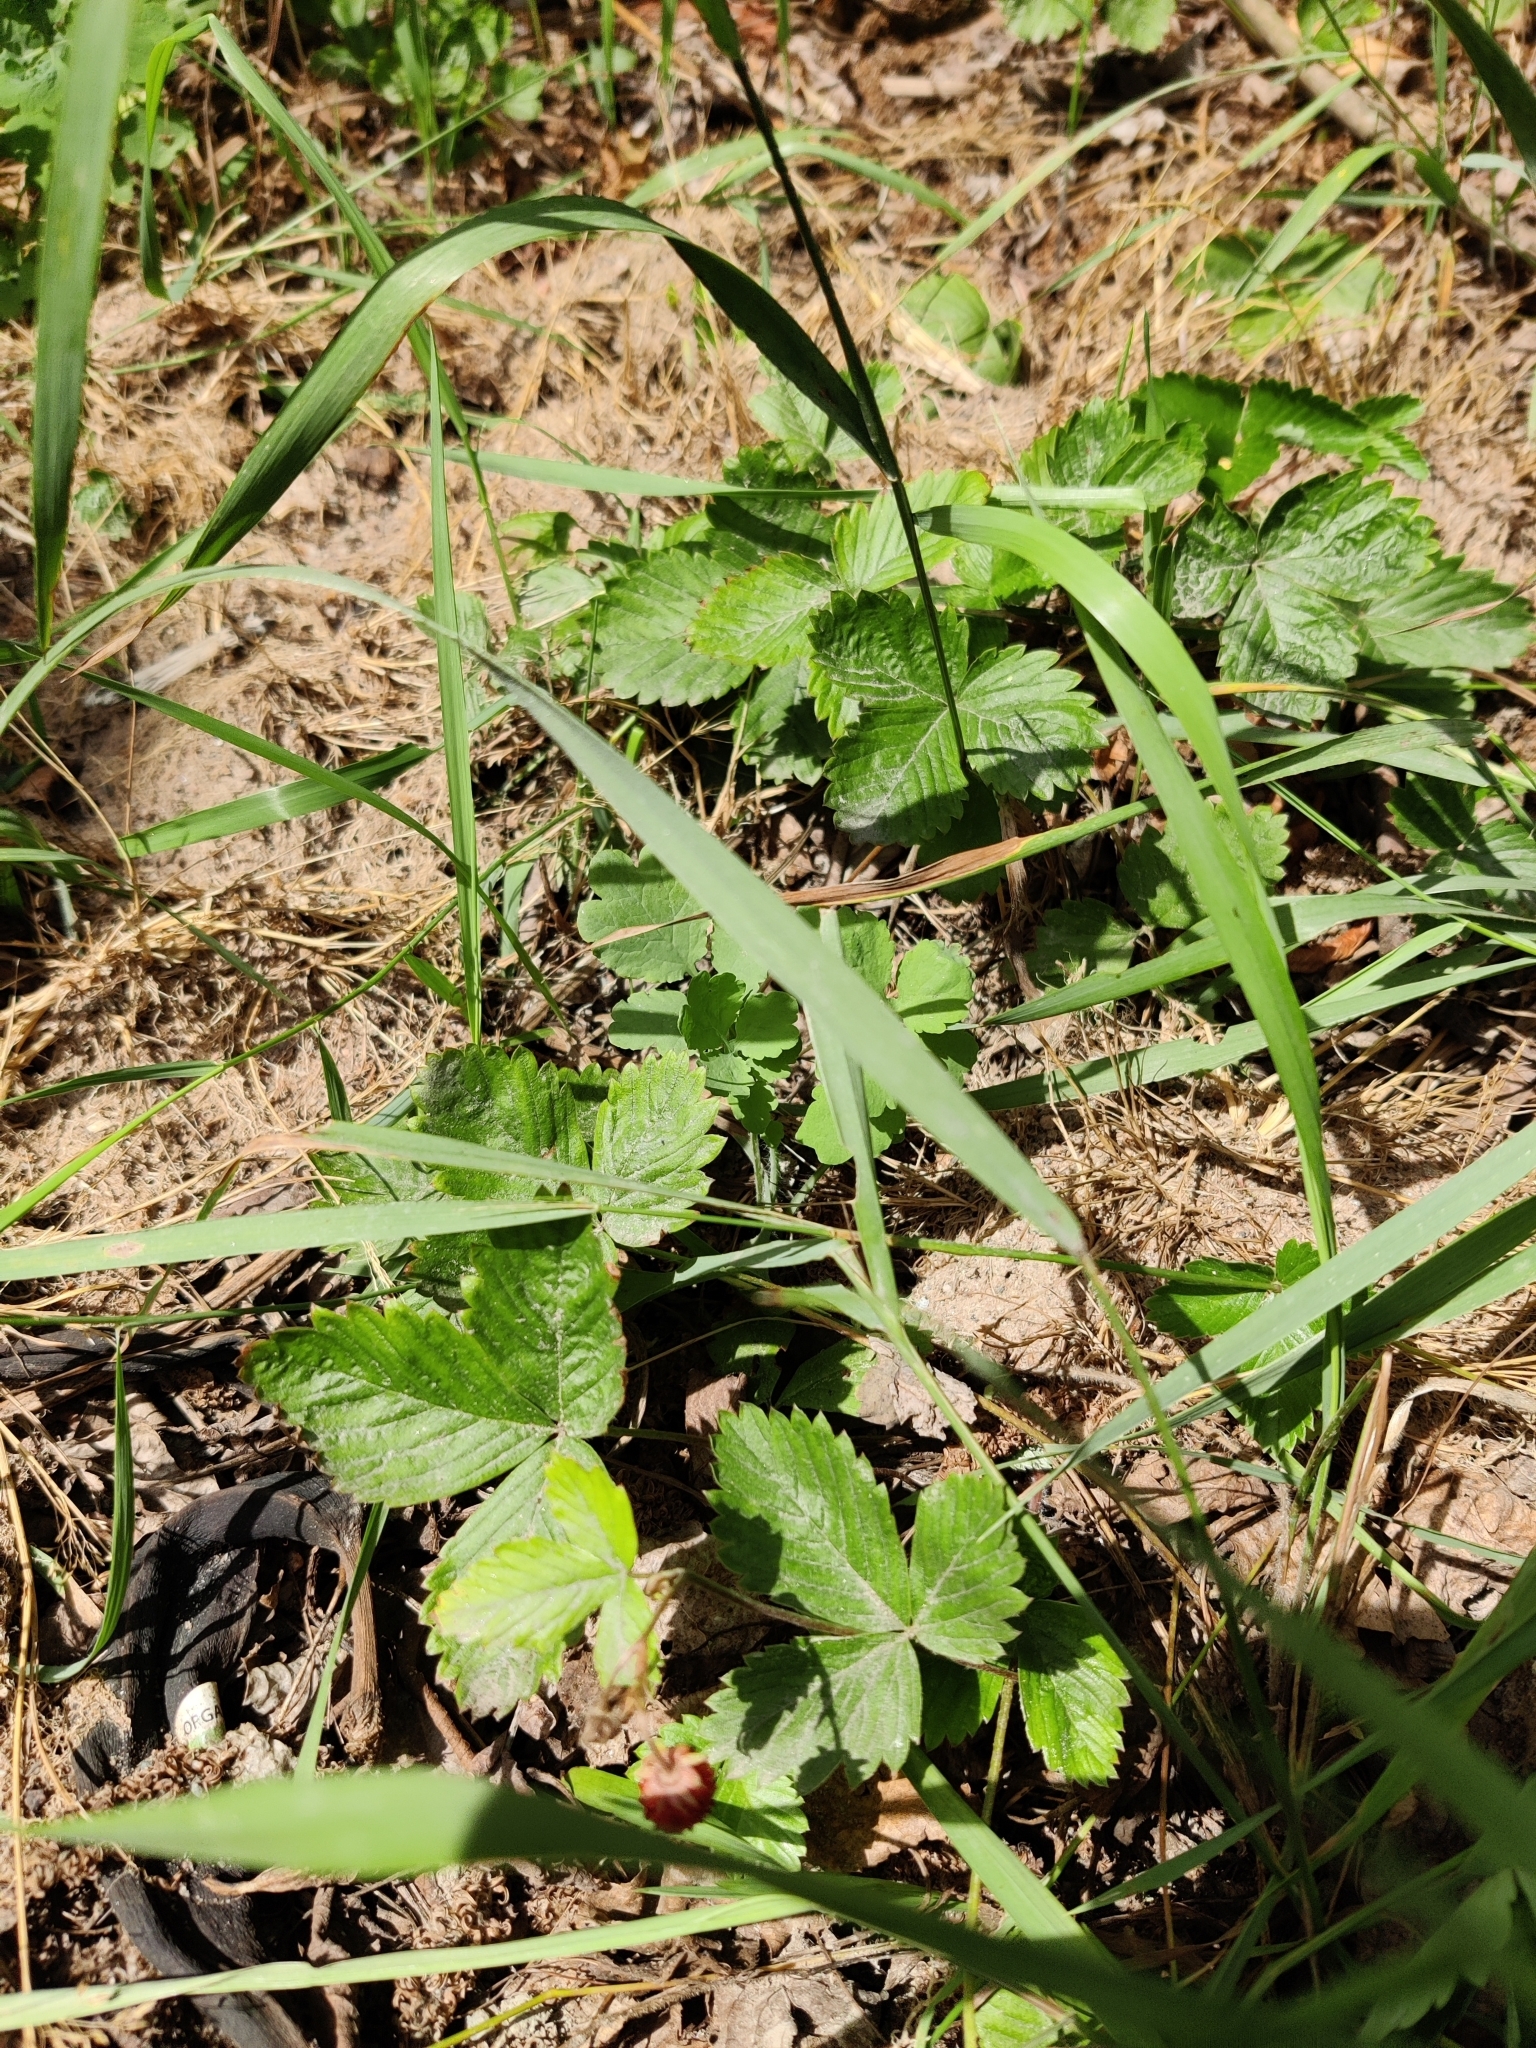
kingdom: Plantae
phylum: Tracheophyta
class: Magnoliopsida
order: Rosales
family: Rosaceae
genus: Fragaria
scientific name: Fragaria vesca
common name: Wild strawberry
